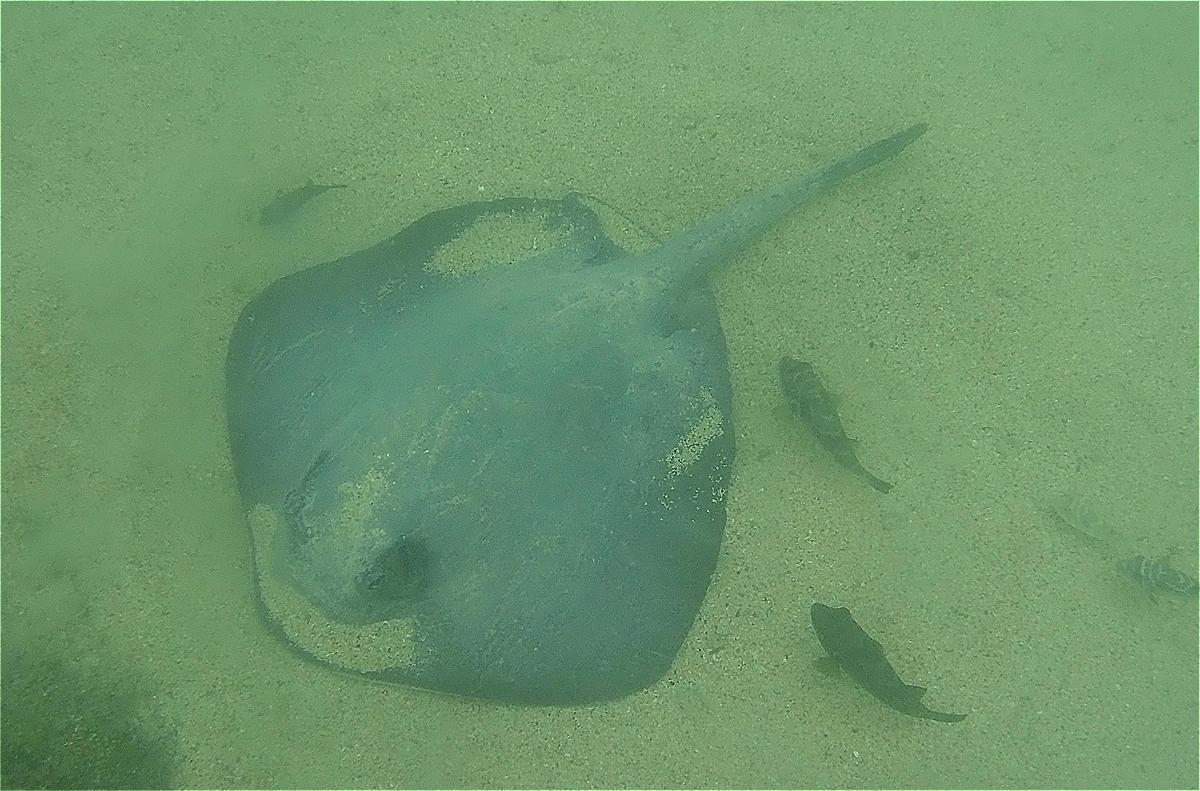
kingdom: Animalia
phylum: Chordata
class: Elasmobranchii
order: Myliobatiformes
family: Dasyatidae
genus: Hypanus
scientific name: Hypanus dipterurus
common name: Diamond stingray
